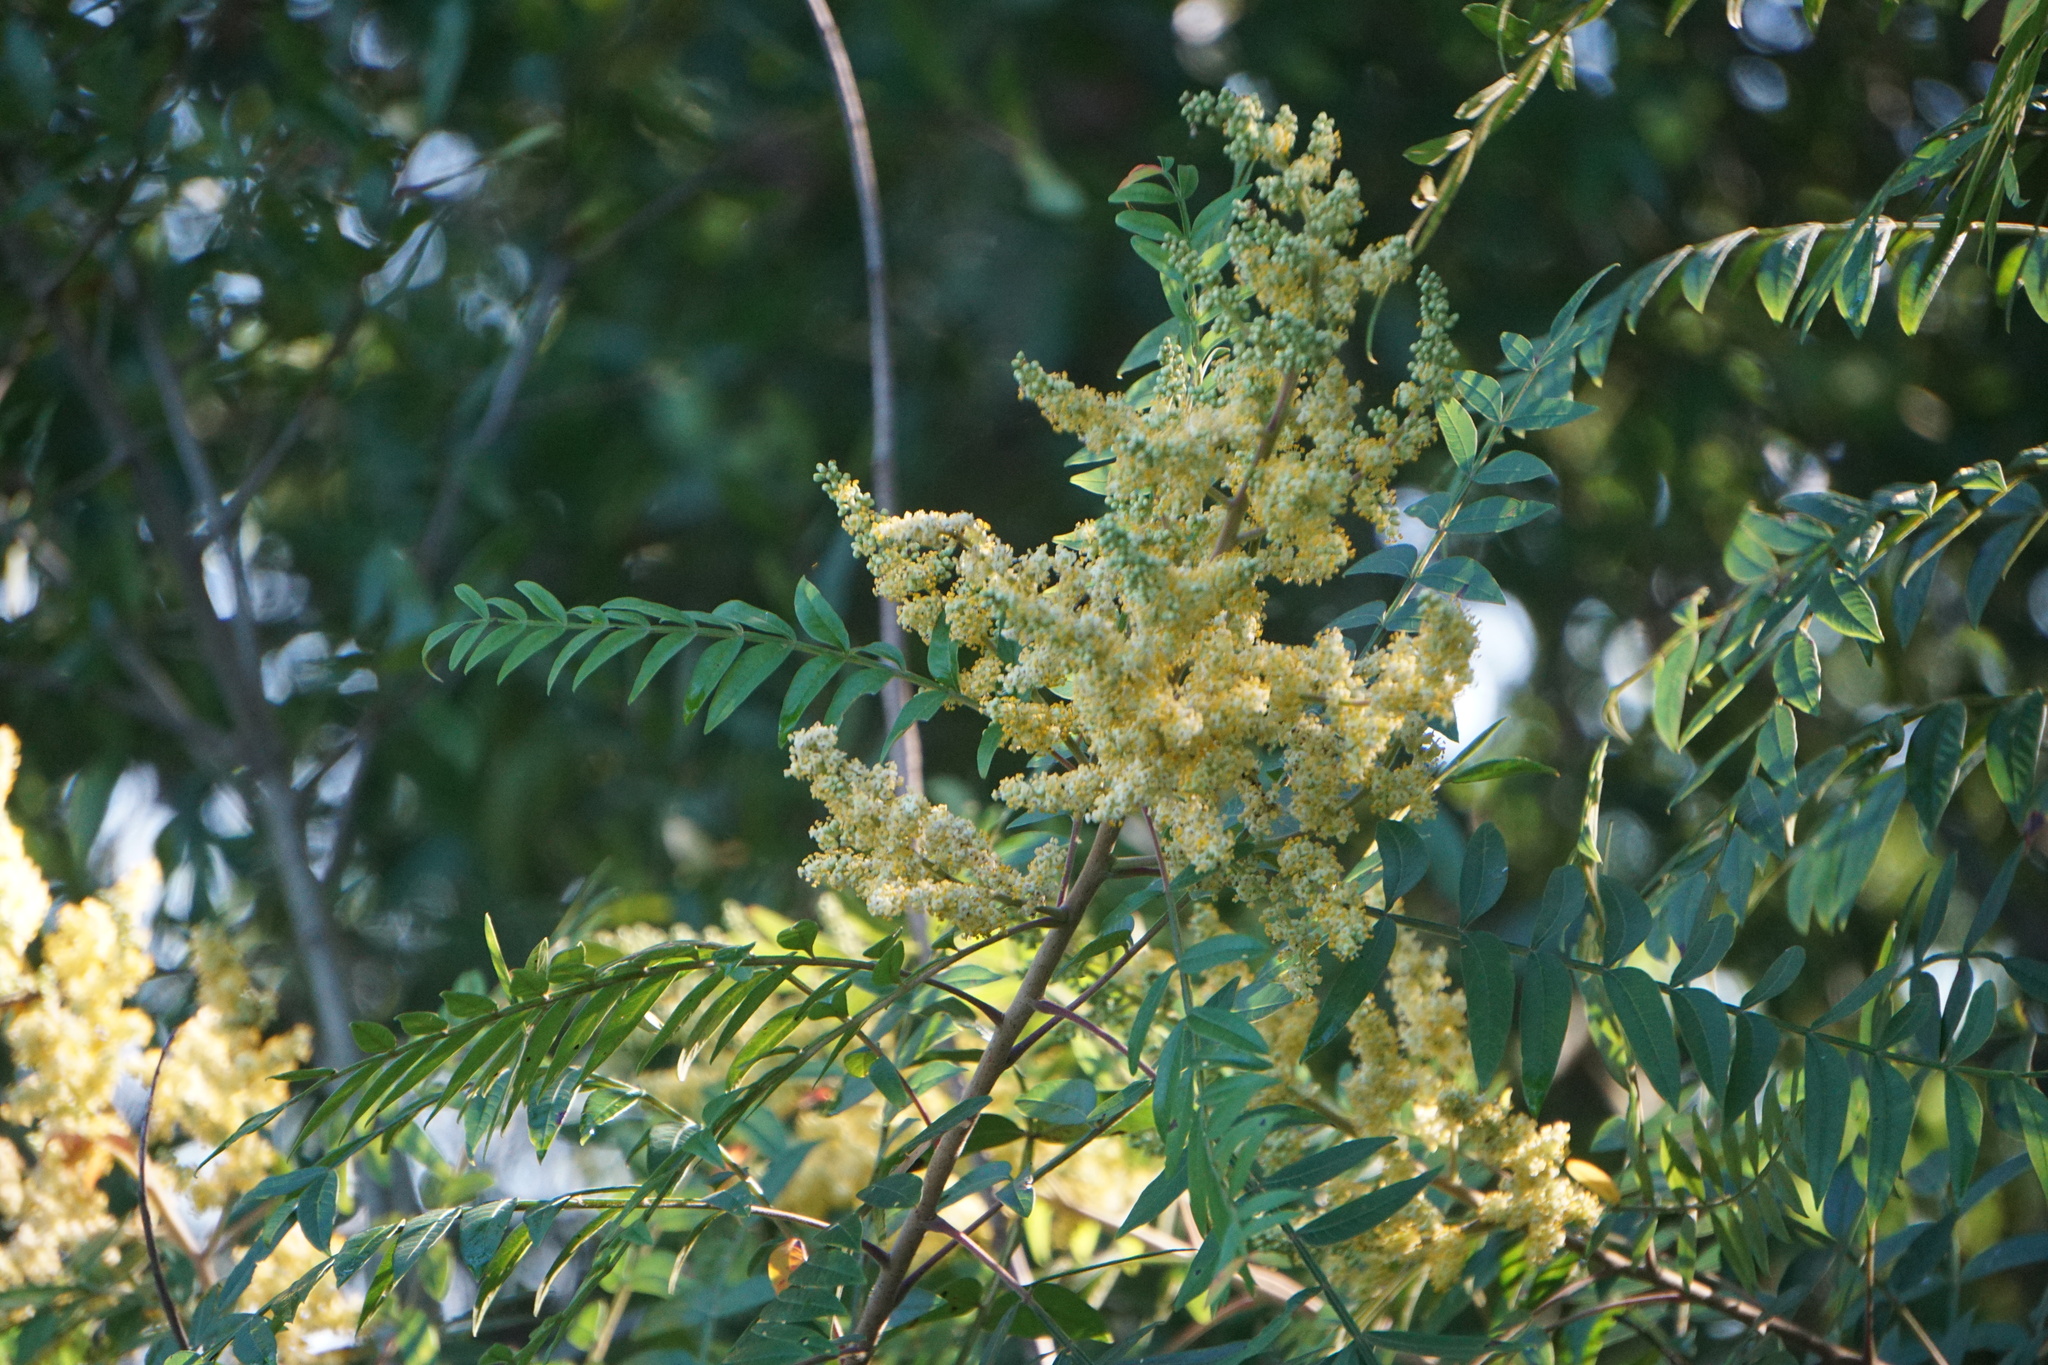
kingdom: Plantae
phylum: Tracheophyta
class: Magnoliopsida
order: Sapindales
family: Anacardiaceae
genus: Rhus
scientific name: Rhus copallina
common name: Shining sumac
